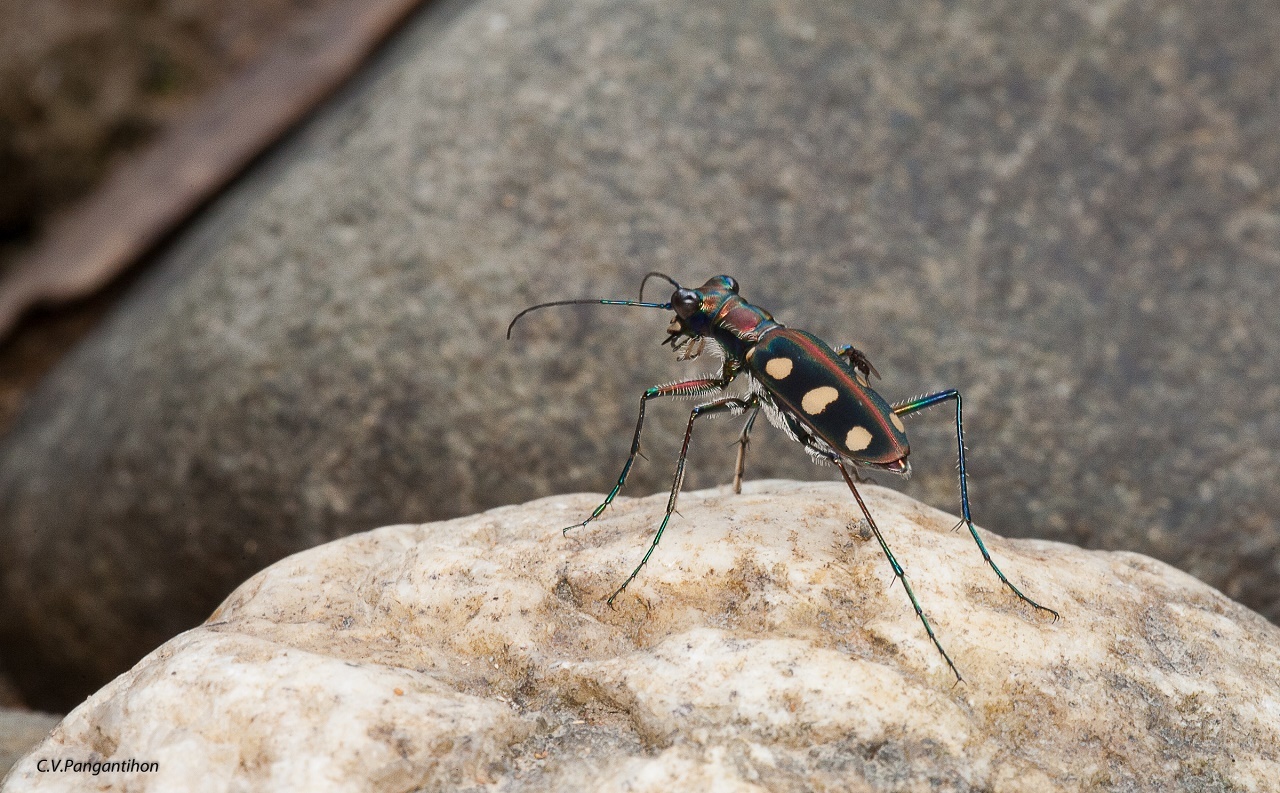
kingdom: Animalia
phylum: Arthropoda
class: Insecta
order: Coleoptera
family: Carabidae
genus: Cicindela
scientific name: Cicindela aurulenta
